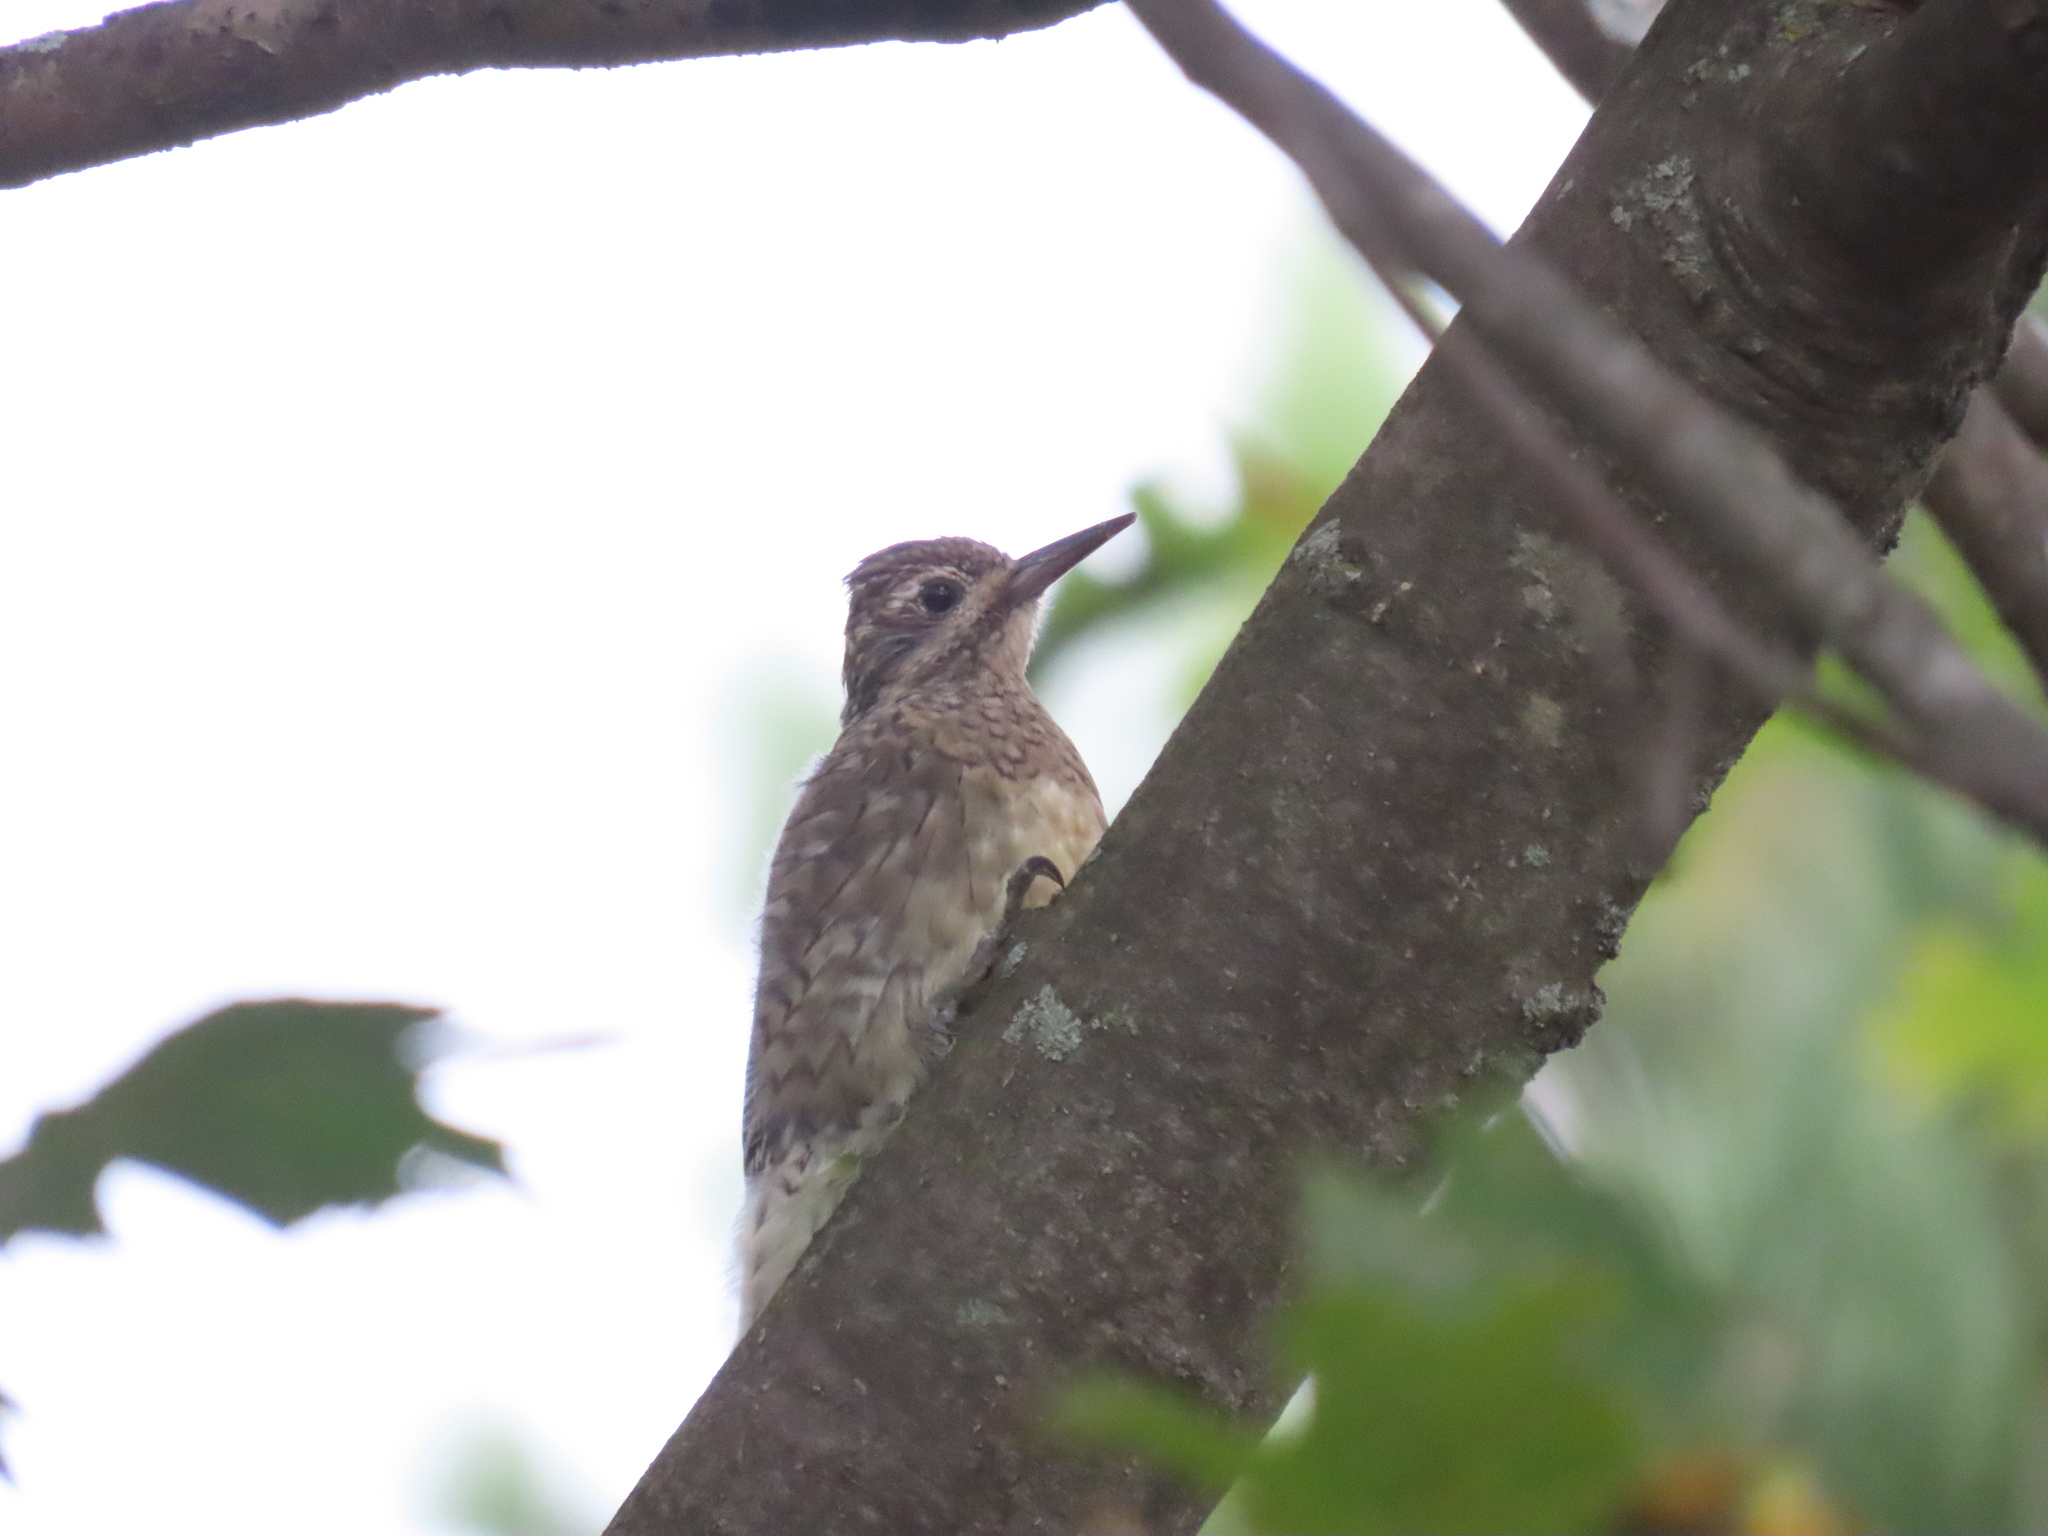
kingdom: Animalia
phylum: Chordata
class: Aves
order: Piciformes
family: Picidae
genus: Sphyrapicus
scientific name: Sphyrapicus varius
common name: Yellow-bellied sapsucker
